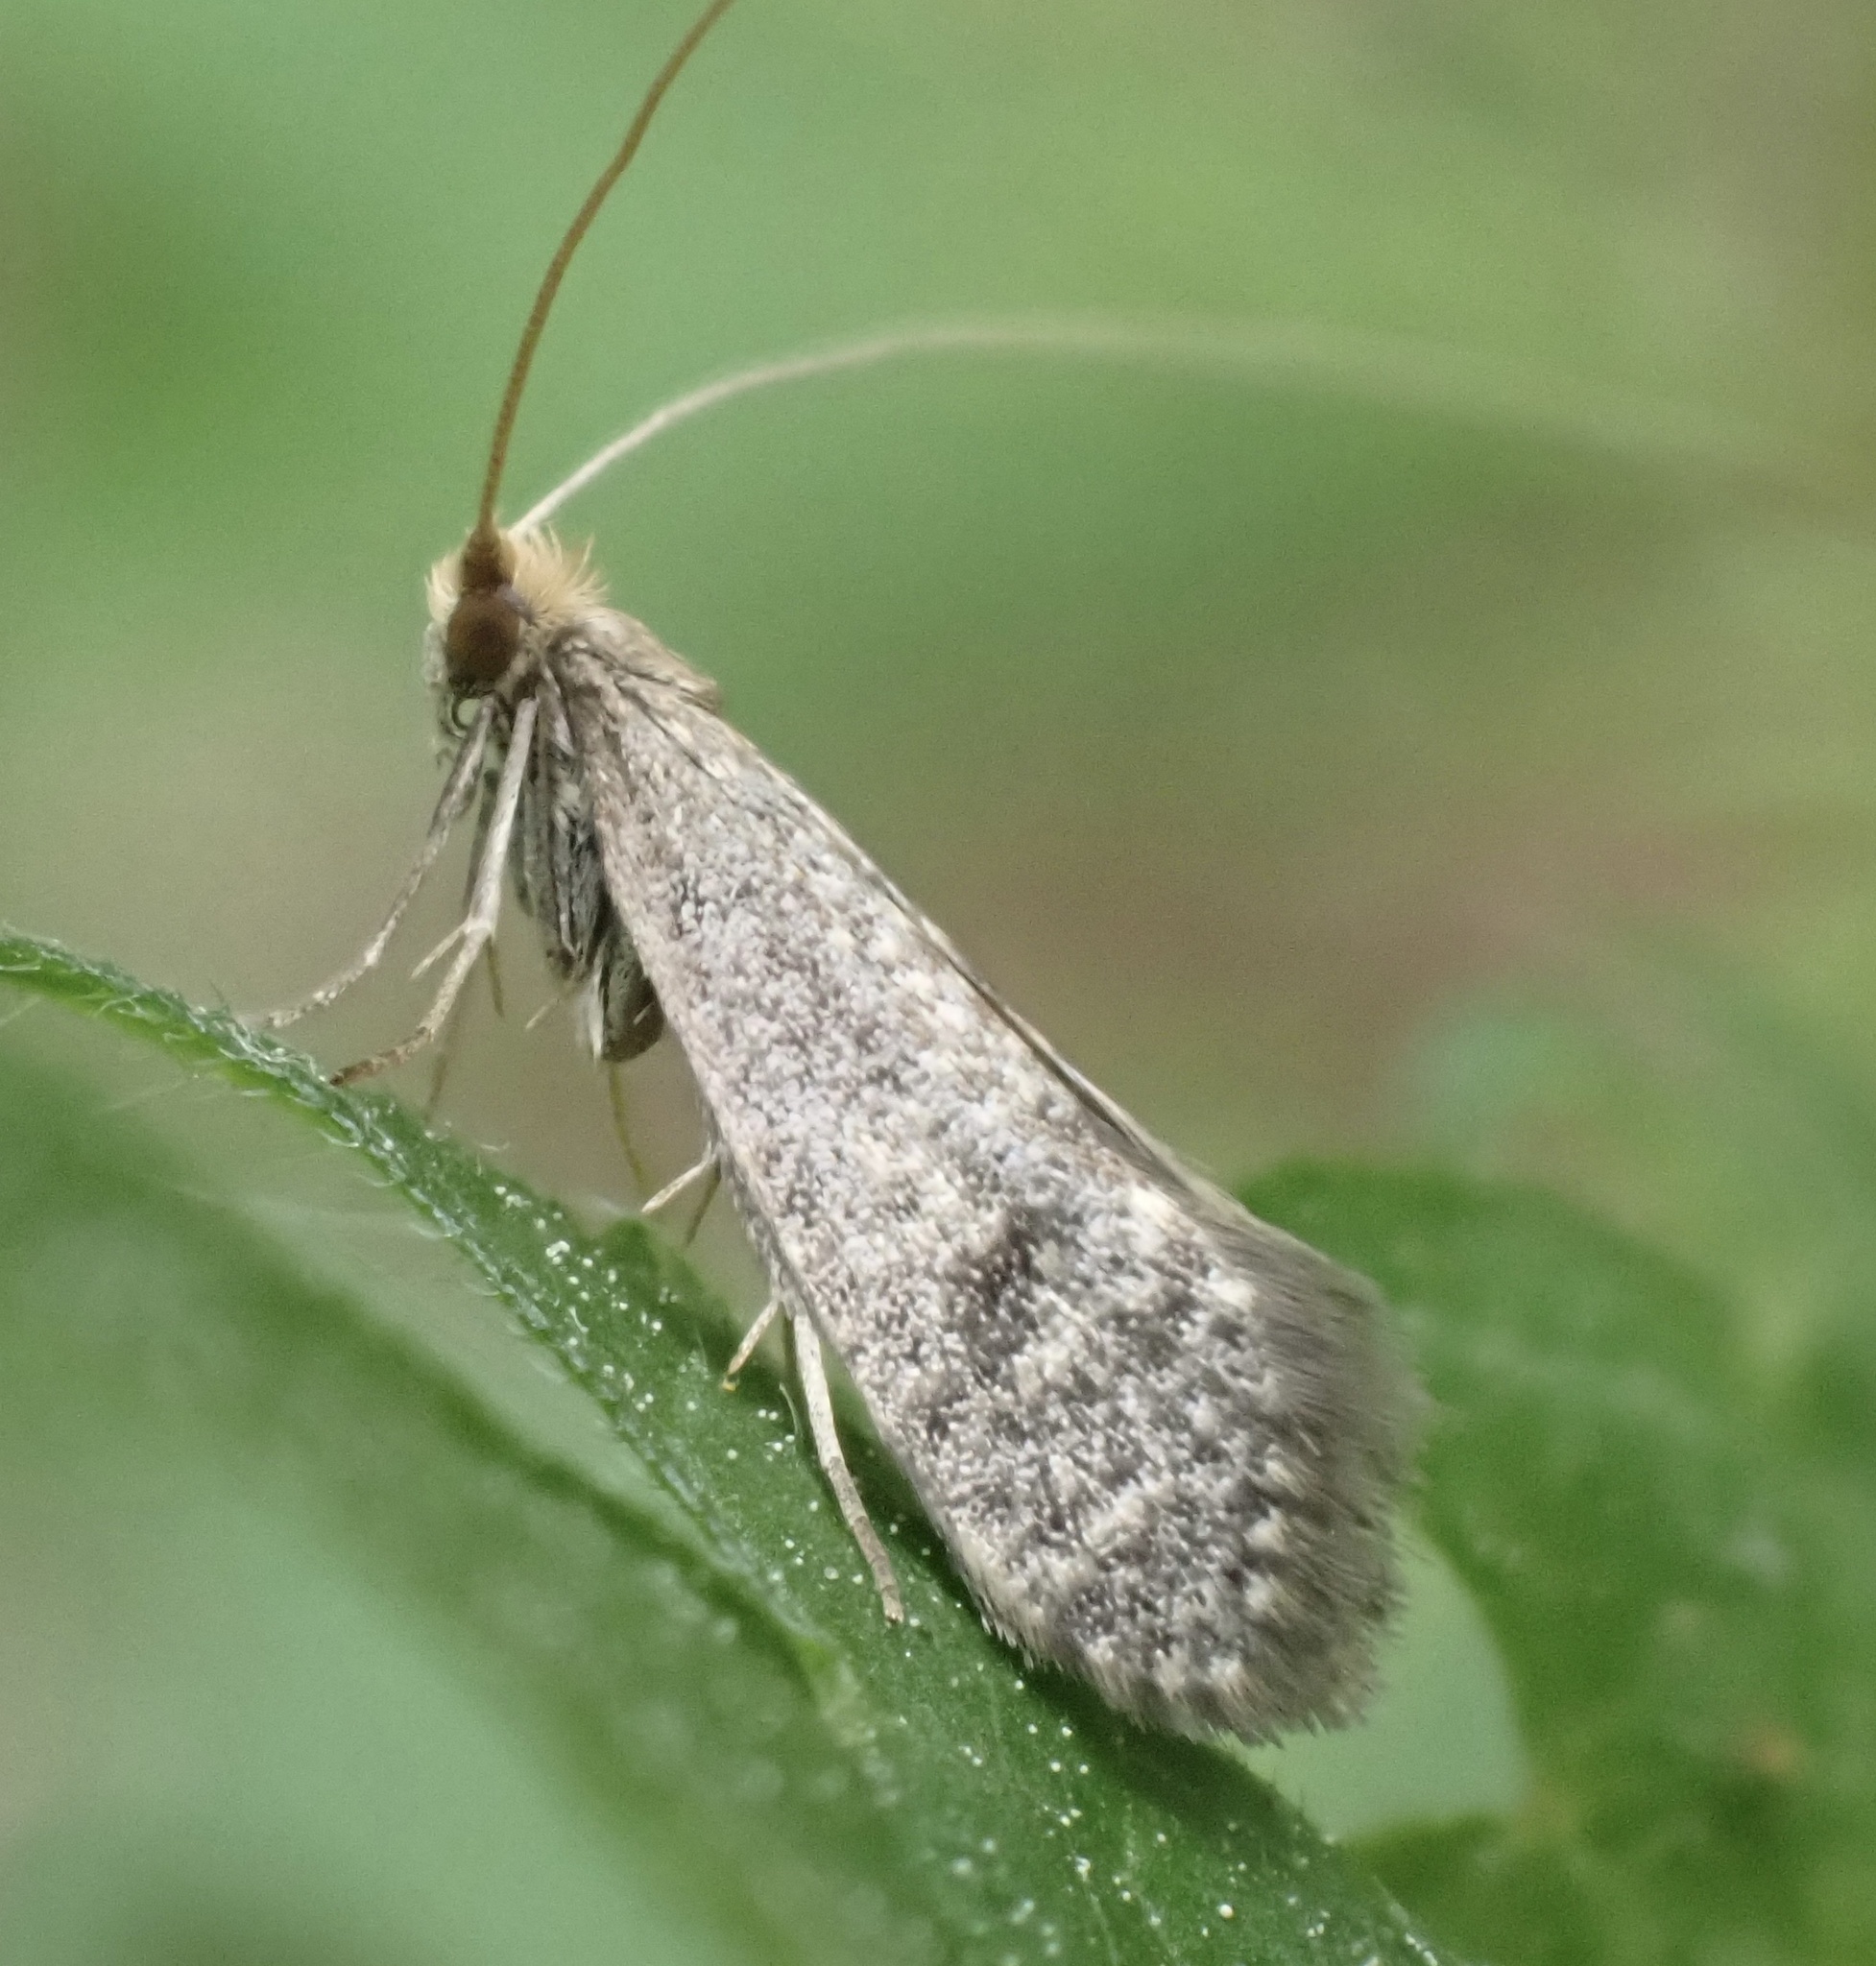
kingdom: Animalia
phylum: Arthropoda
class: Insecta
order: Lepidoptera
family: Adelidae
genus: Nematopogon
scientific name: Nematopogon robertella
